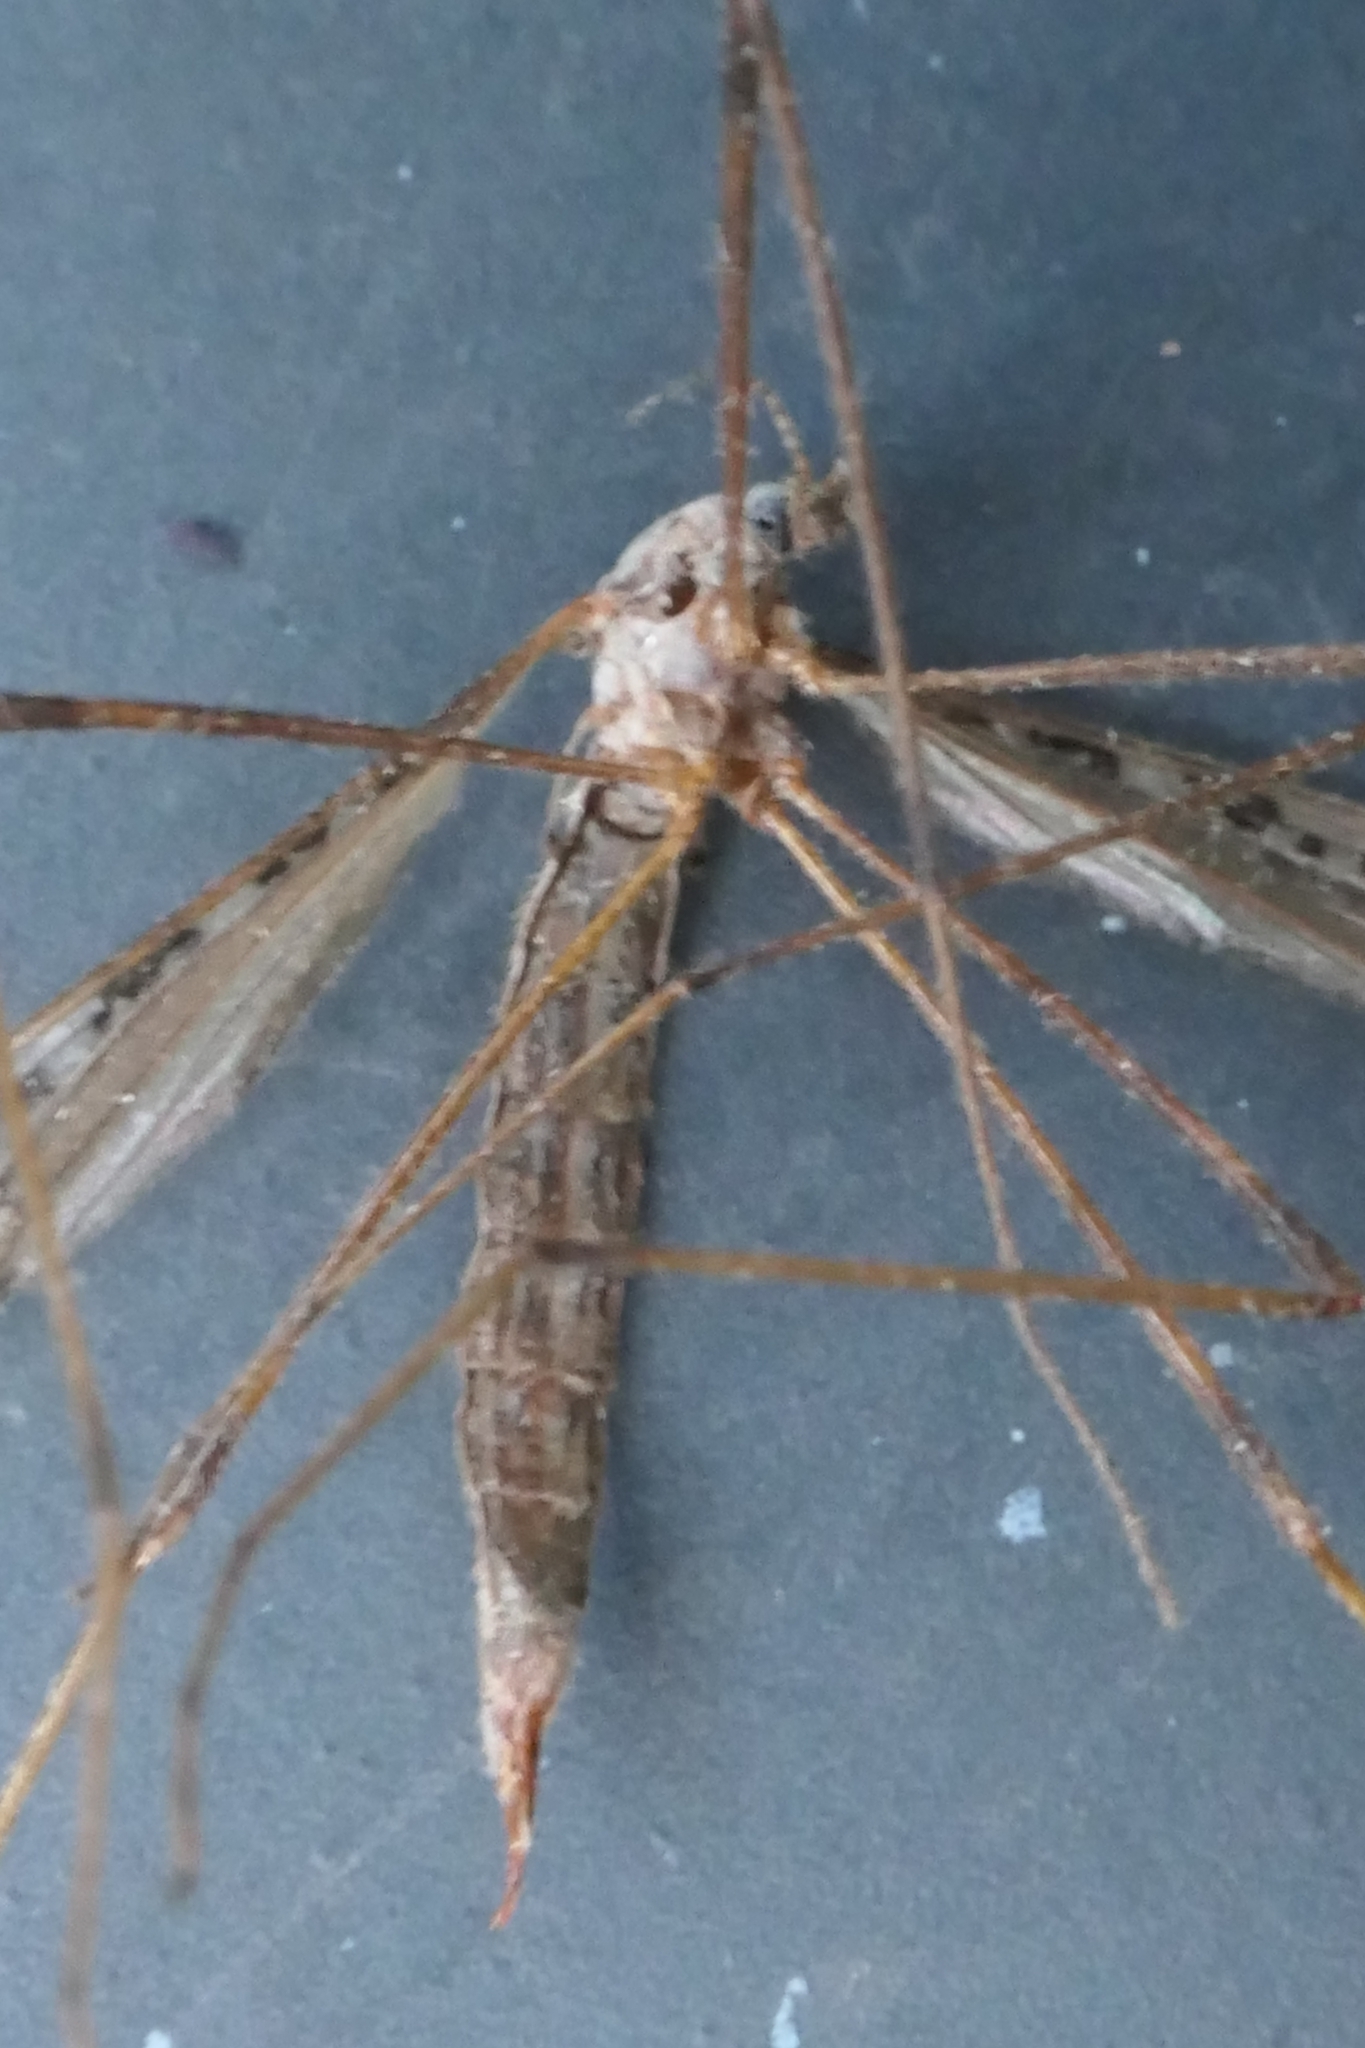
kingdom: Animalia
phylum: Arthropoda
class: Insecta
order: Diptera
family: Limoniidae
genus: Paralimnophila
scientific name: Paralimnophila skusei
